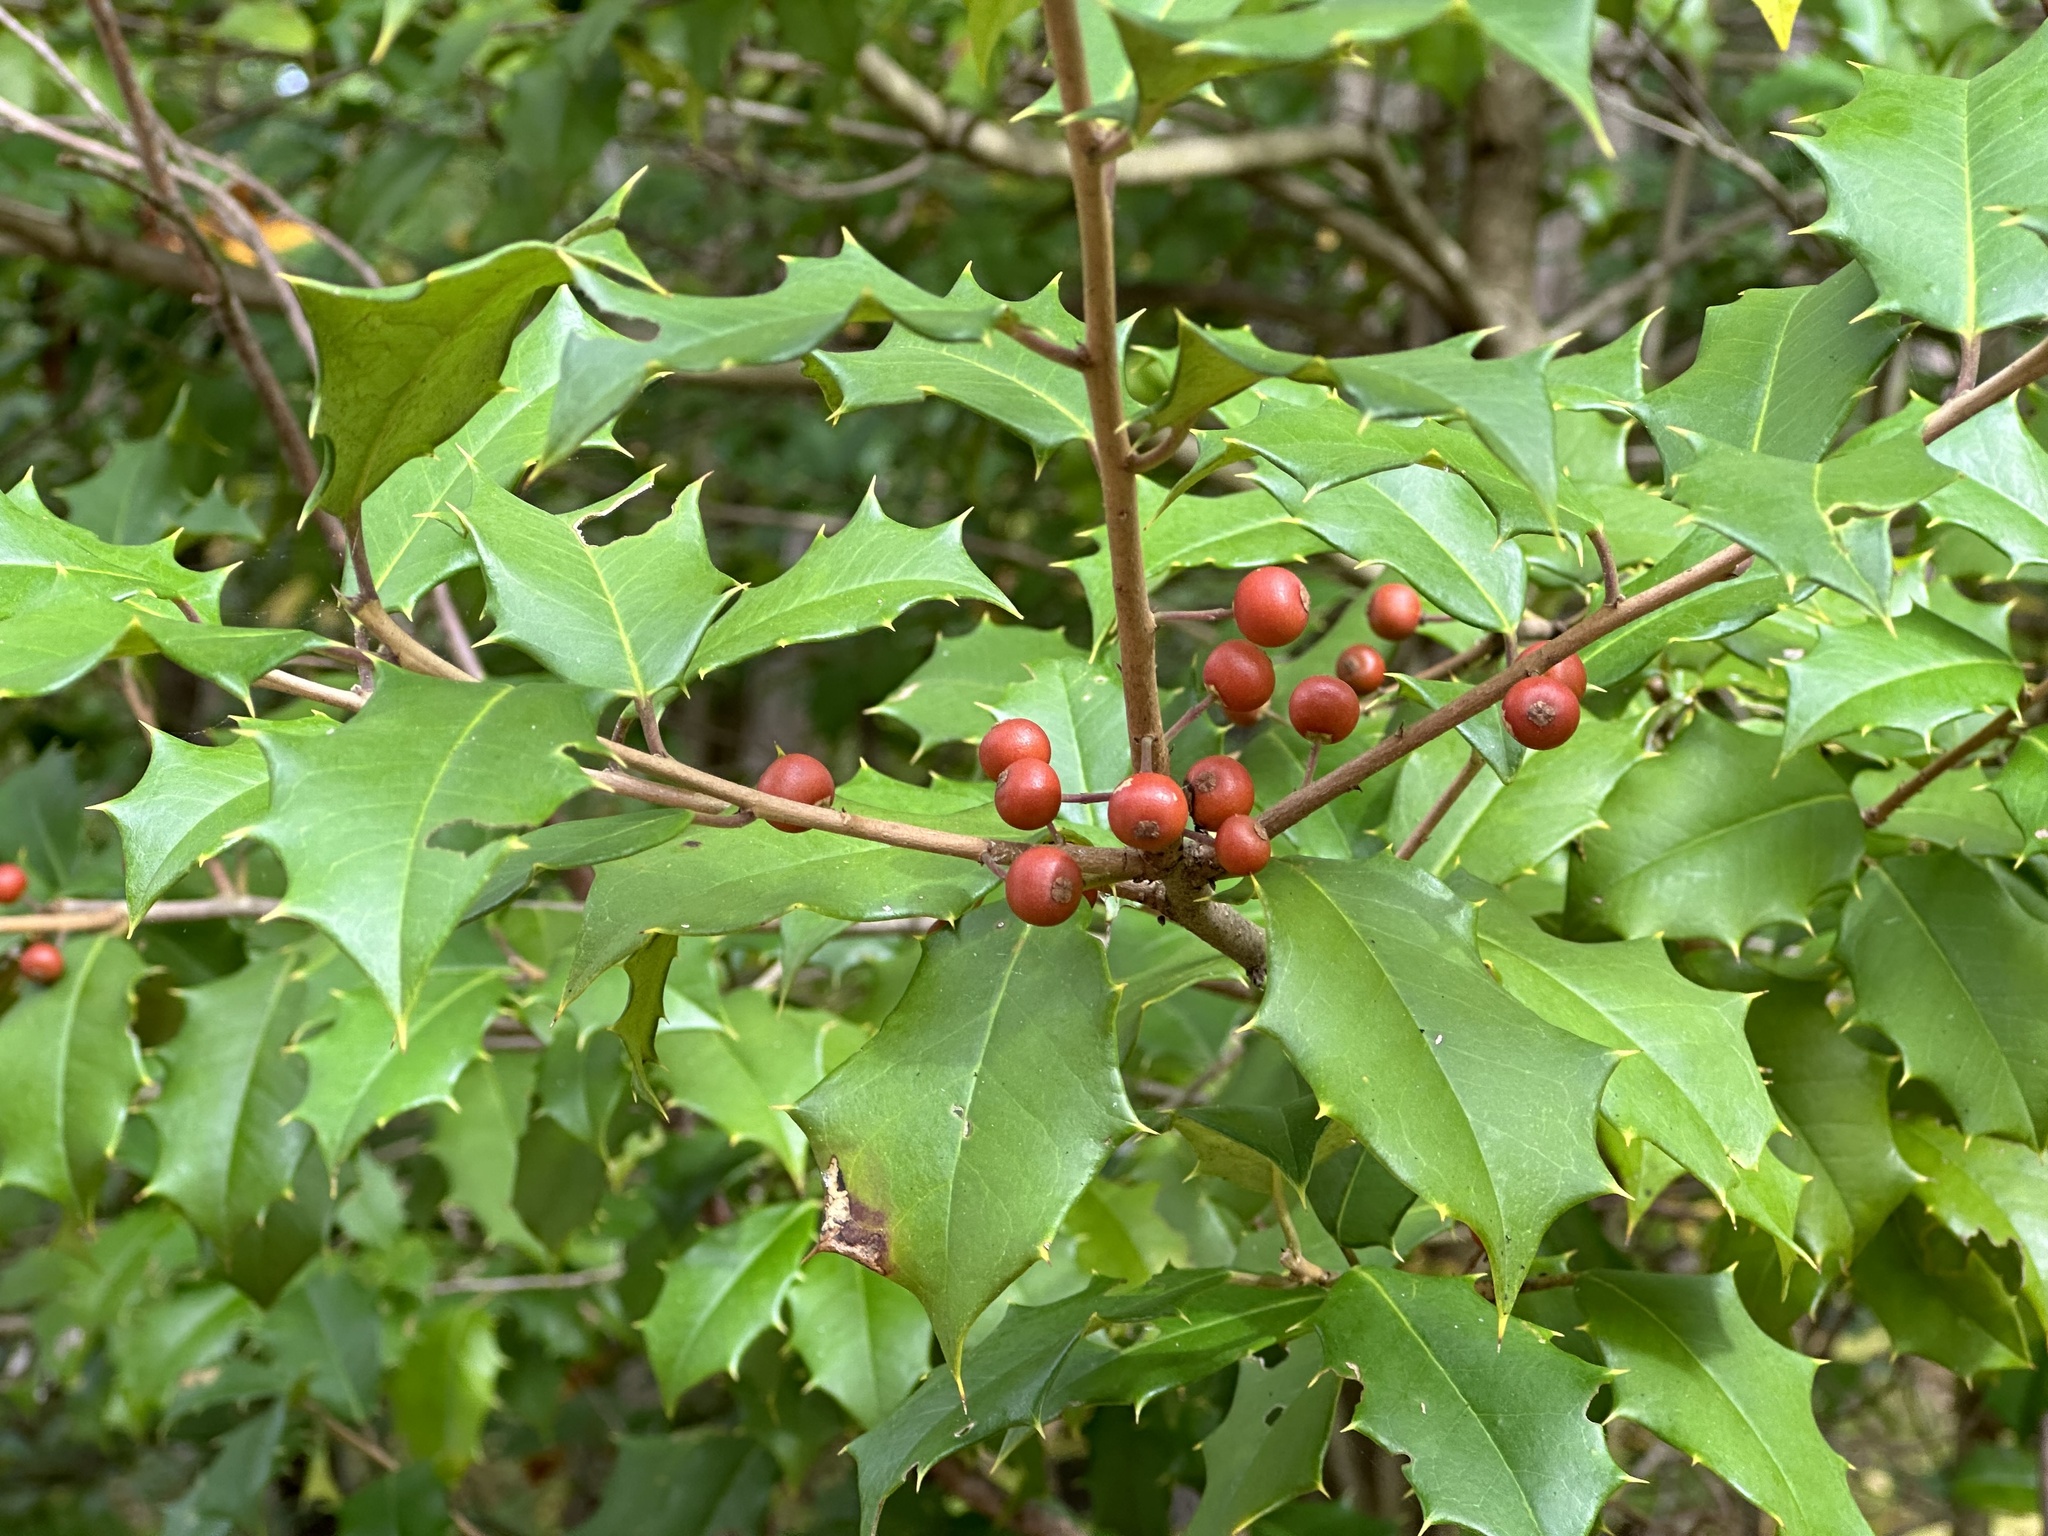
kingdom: Plantae
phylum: Tracheophyta
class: Magnoliopsida
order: Aquifoliales
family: Aquifoliaceae
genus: Ilex
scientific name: Ilex opaca
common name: American holly
